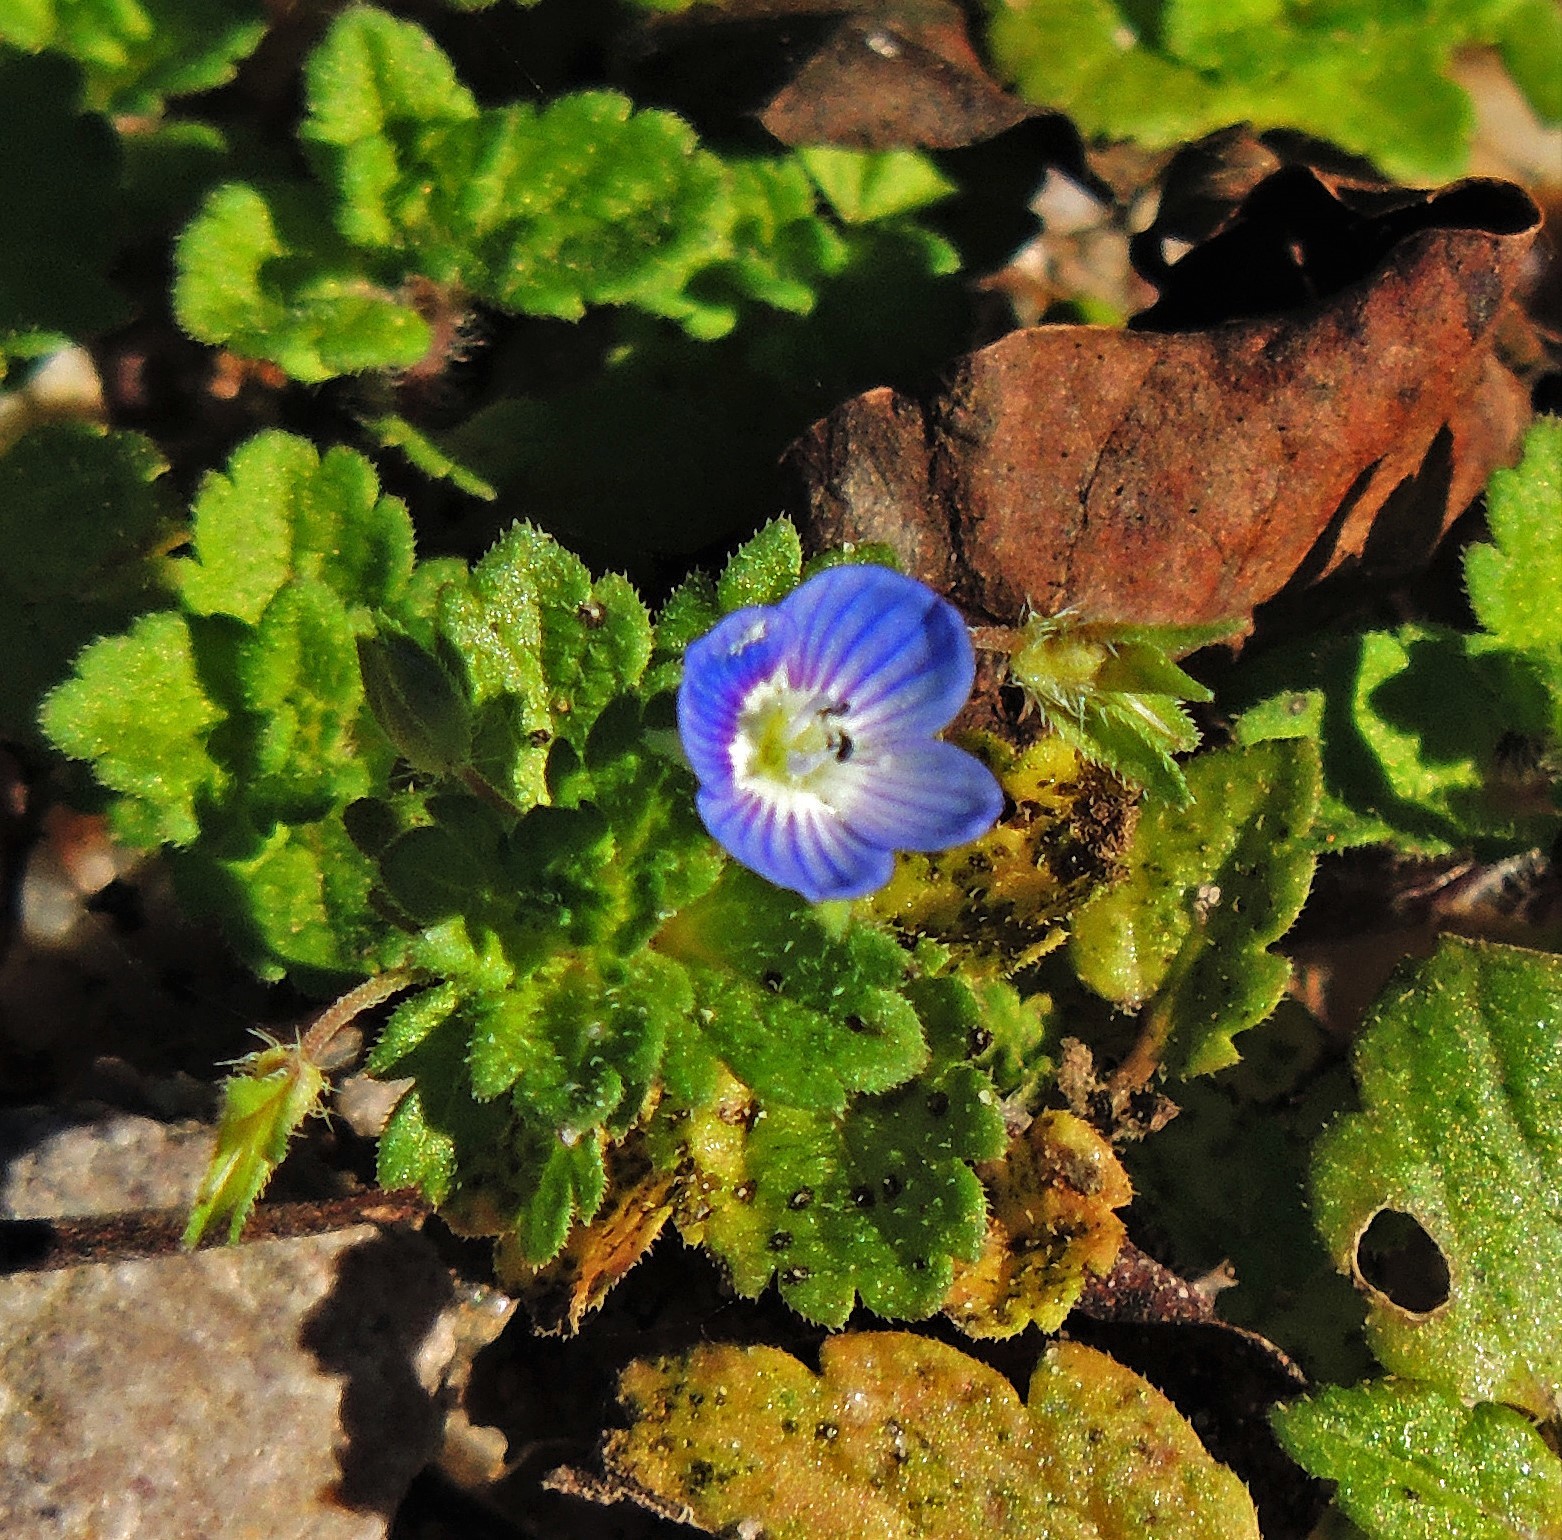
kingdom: Plantae
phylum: Tracheophyta
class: Magnoliopsida
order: Lamiales
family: Plantaginaceae
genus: Veronica
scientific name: Veronica persica
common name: Common field-speedwell
